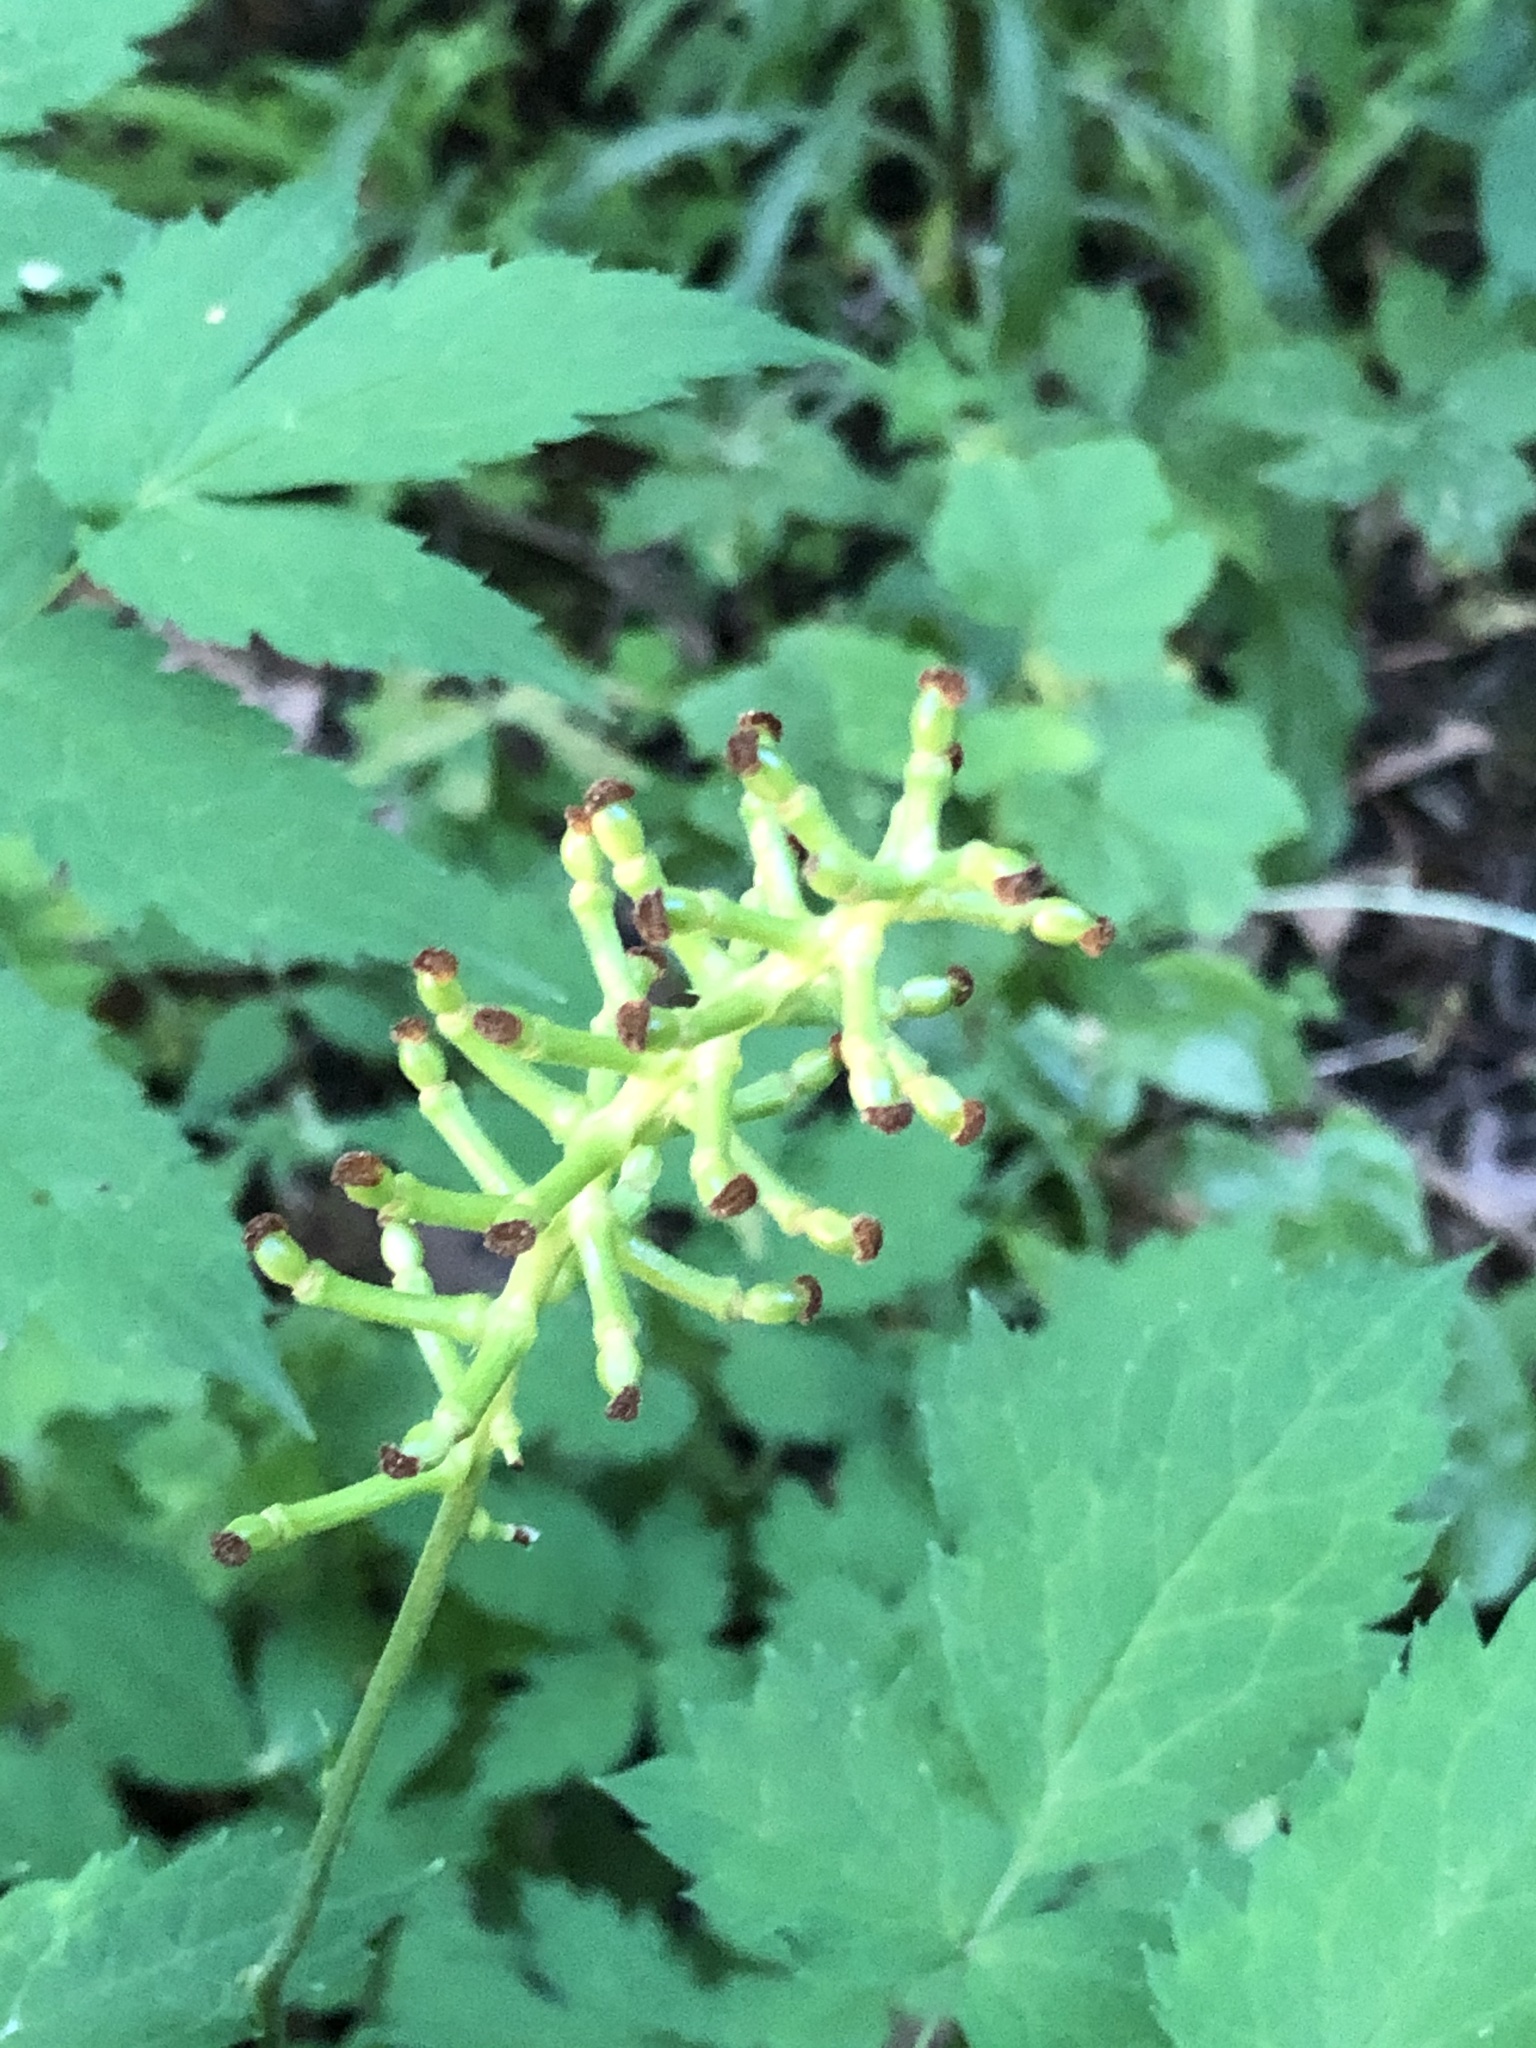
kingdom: Plantae
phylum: Tracheophyta
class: Magnoliopsida
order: Ranunculales
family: Ranunculaceae
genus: Actaea
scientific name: Actaea pachypoda
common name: Doll's-eyes
